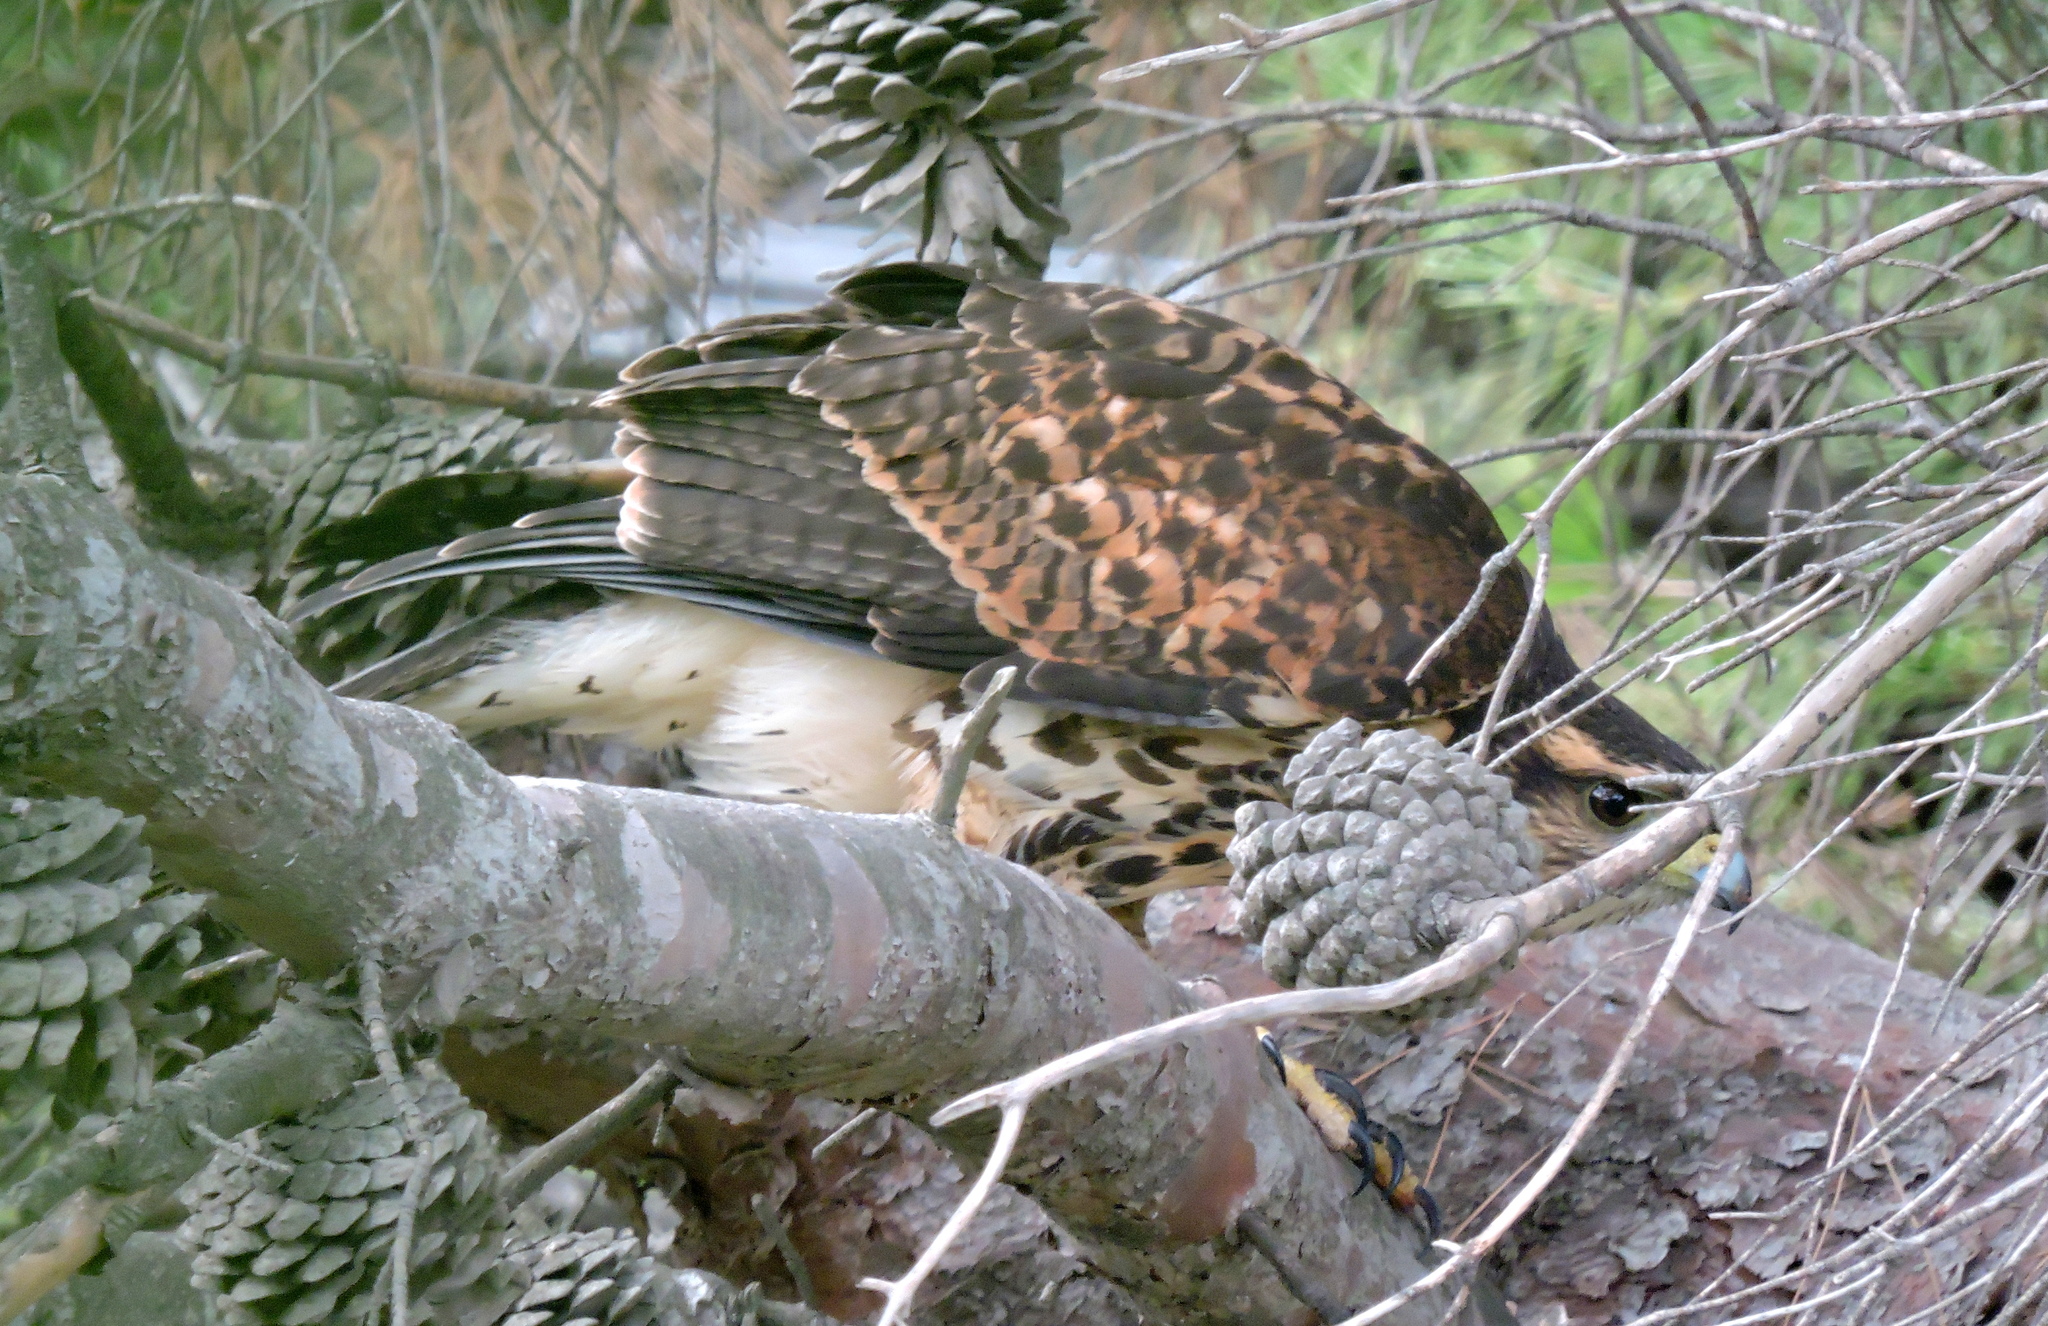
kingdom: Animalia
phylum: Chordata
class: Aves
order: Accipitriformes
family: Accipitridae
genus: Parabuteo
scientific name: Parabuteo unicinctus
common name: Harris's hawk
